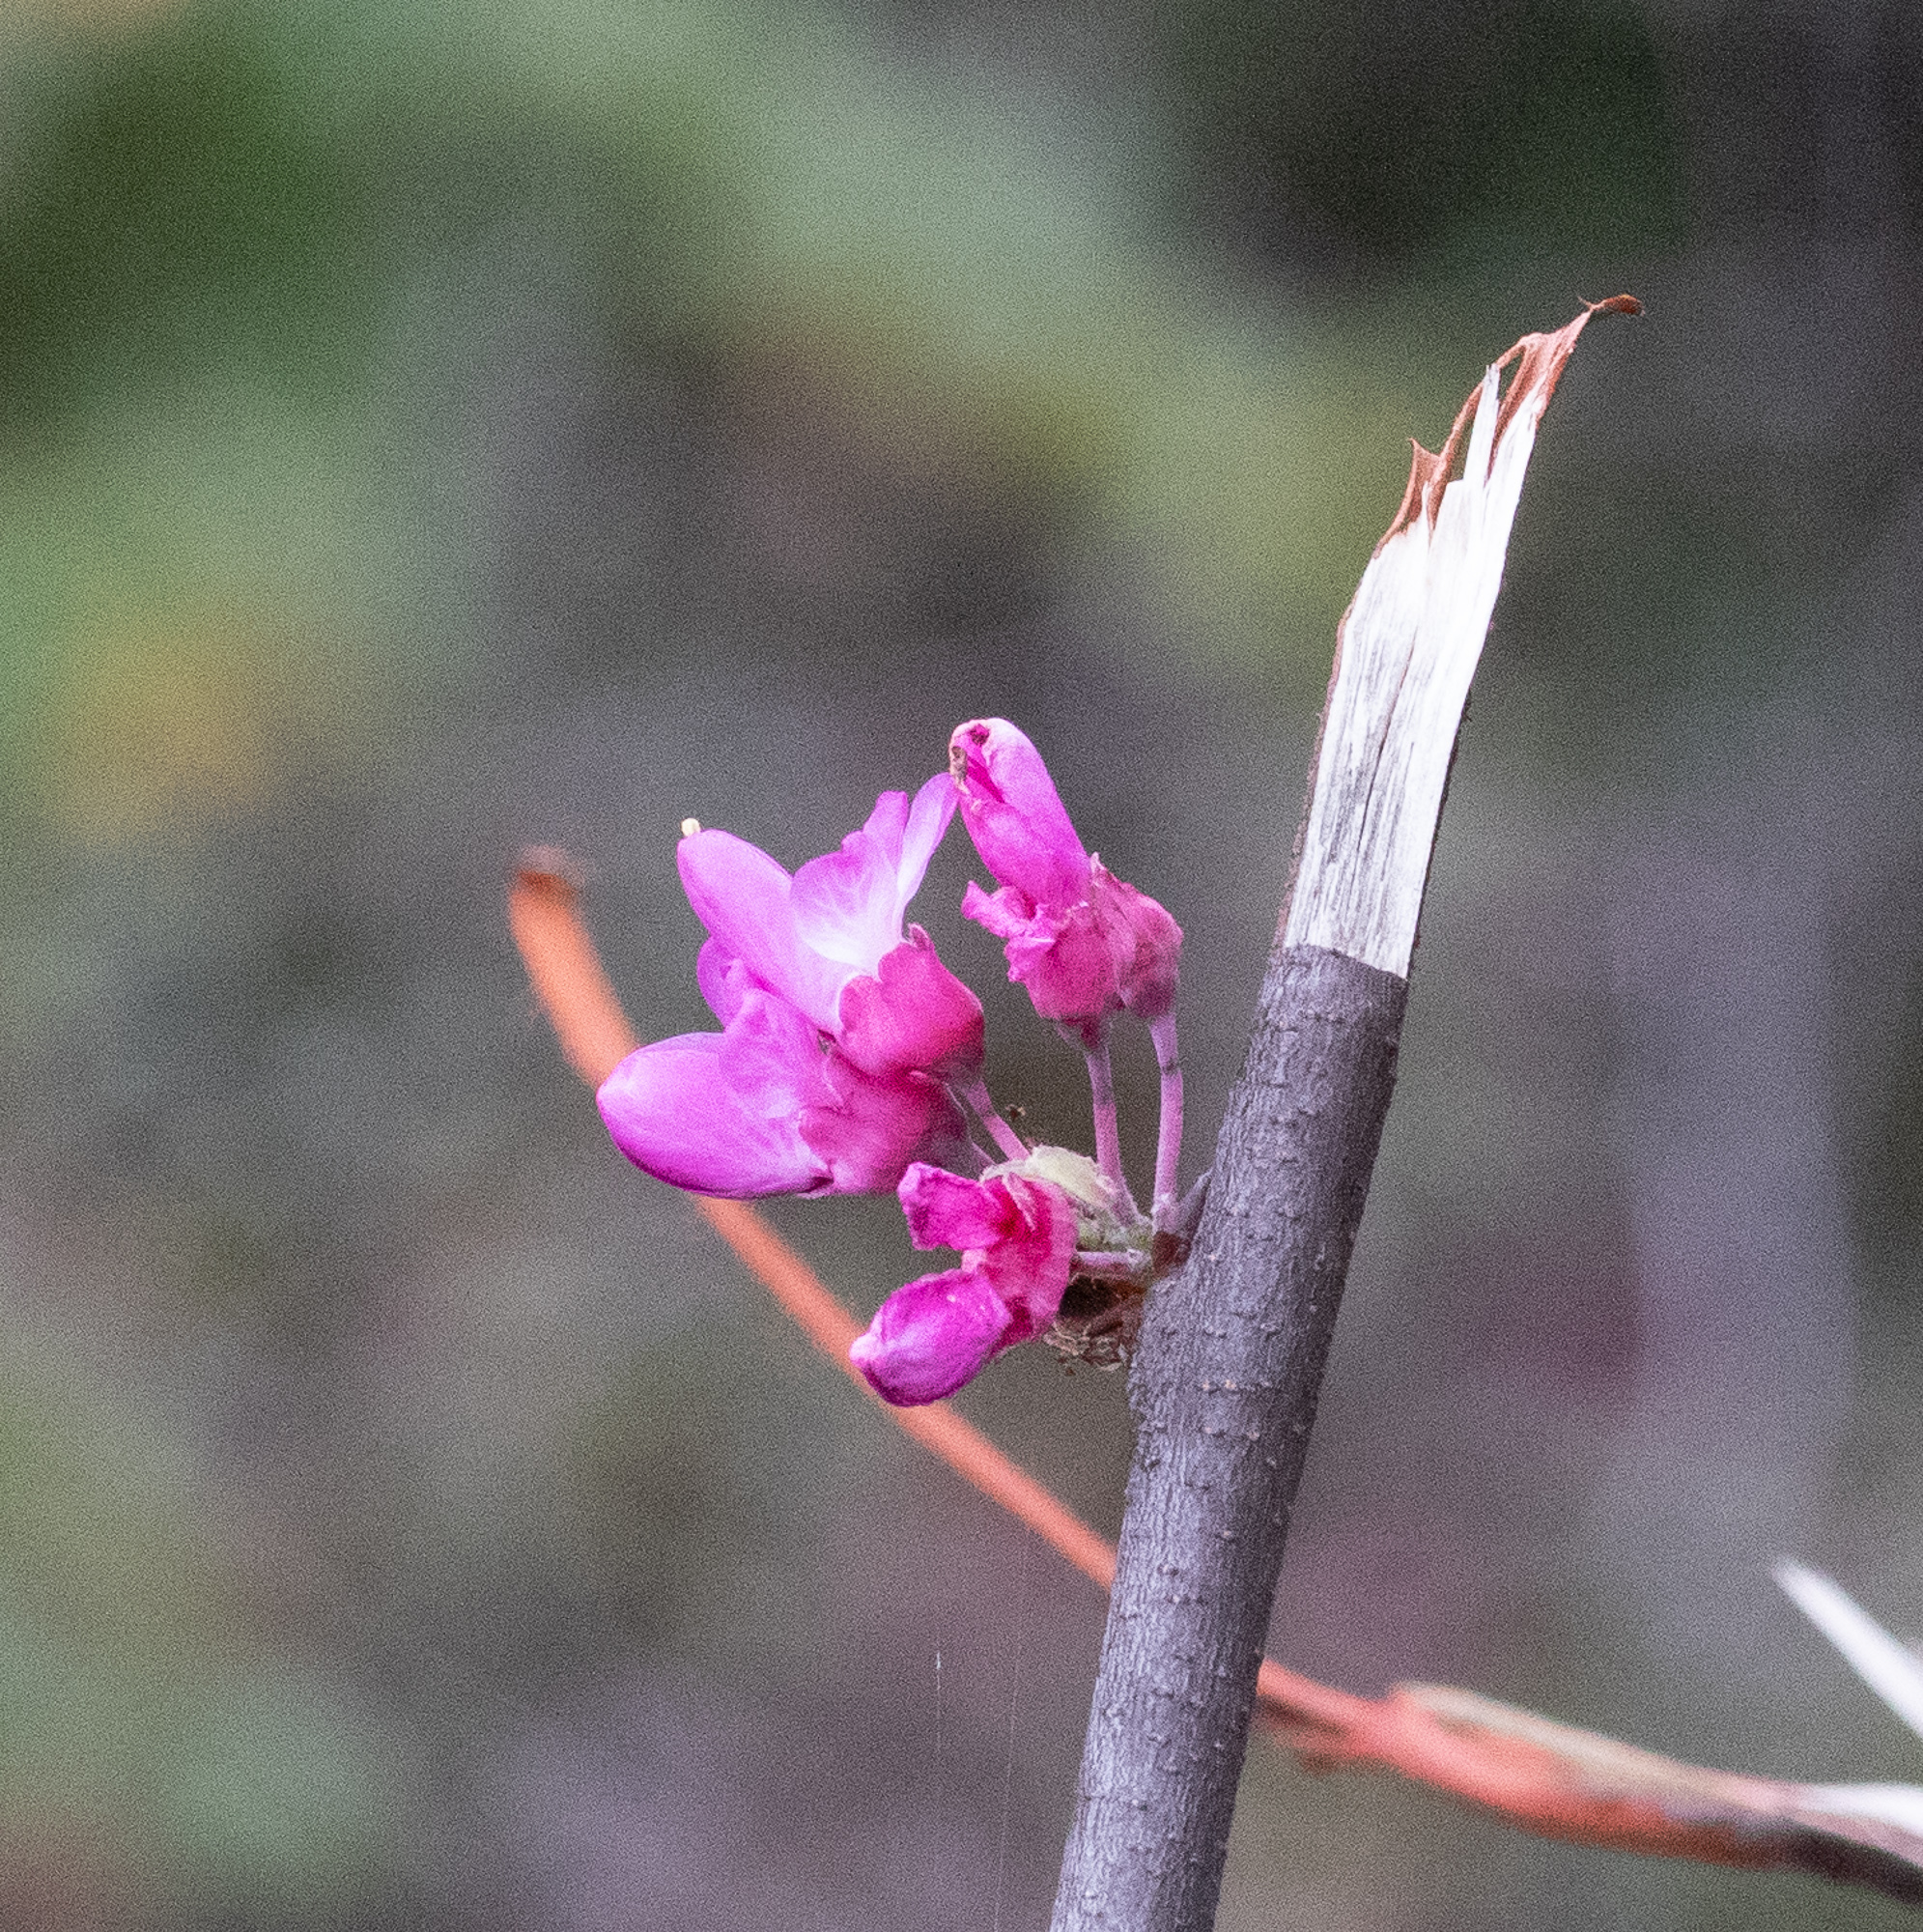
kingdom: Plantae
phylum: Tracheophyta
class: Magnoliopsida
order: Fabales
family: Fabaceae
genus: Cercis
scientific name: Cercis siliquastrum
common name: Judas tree
